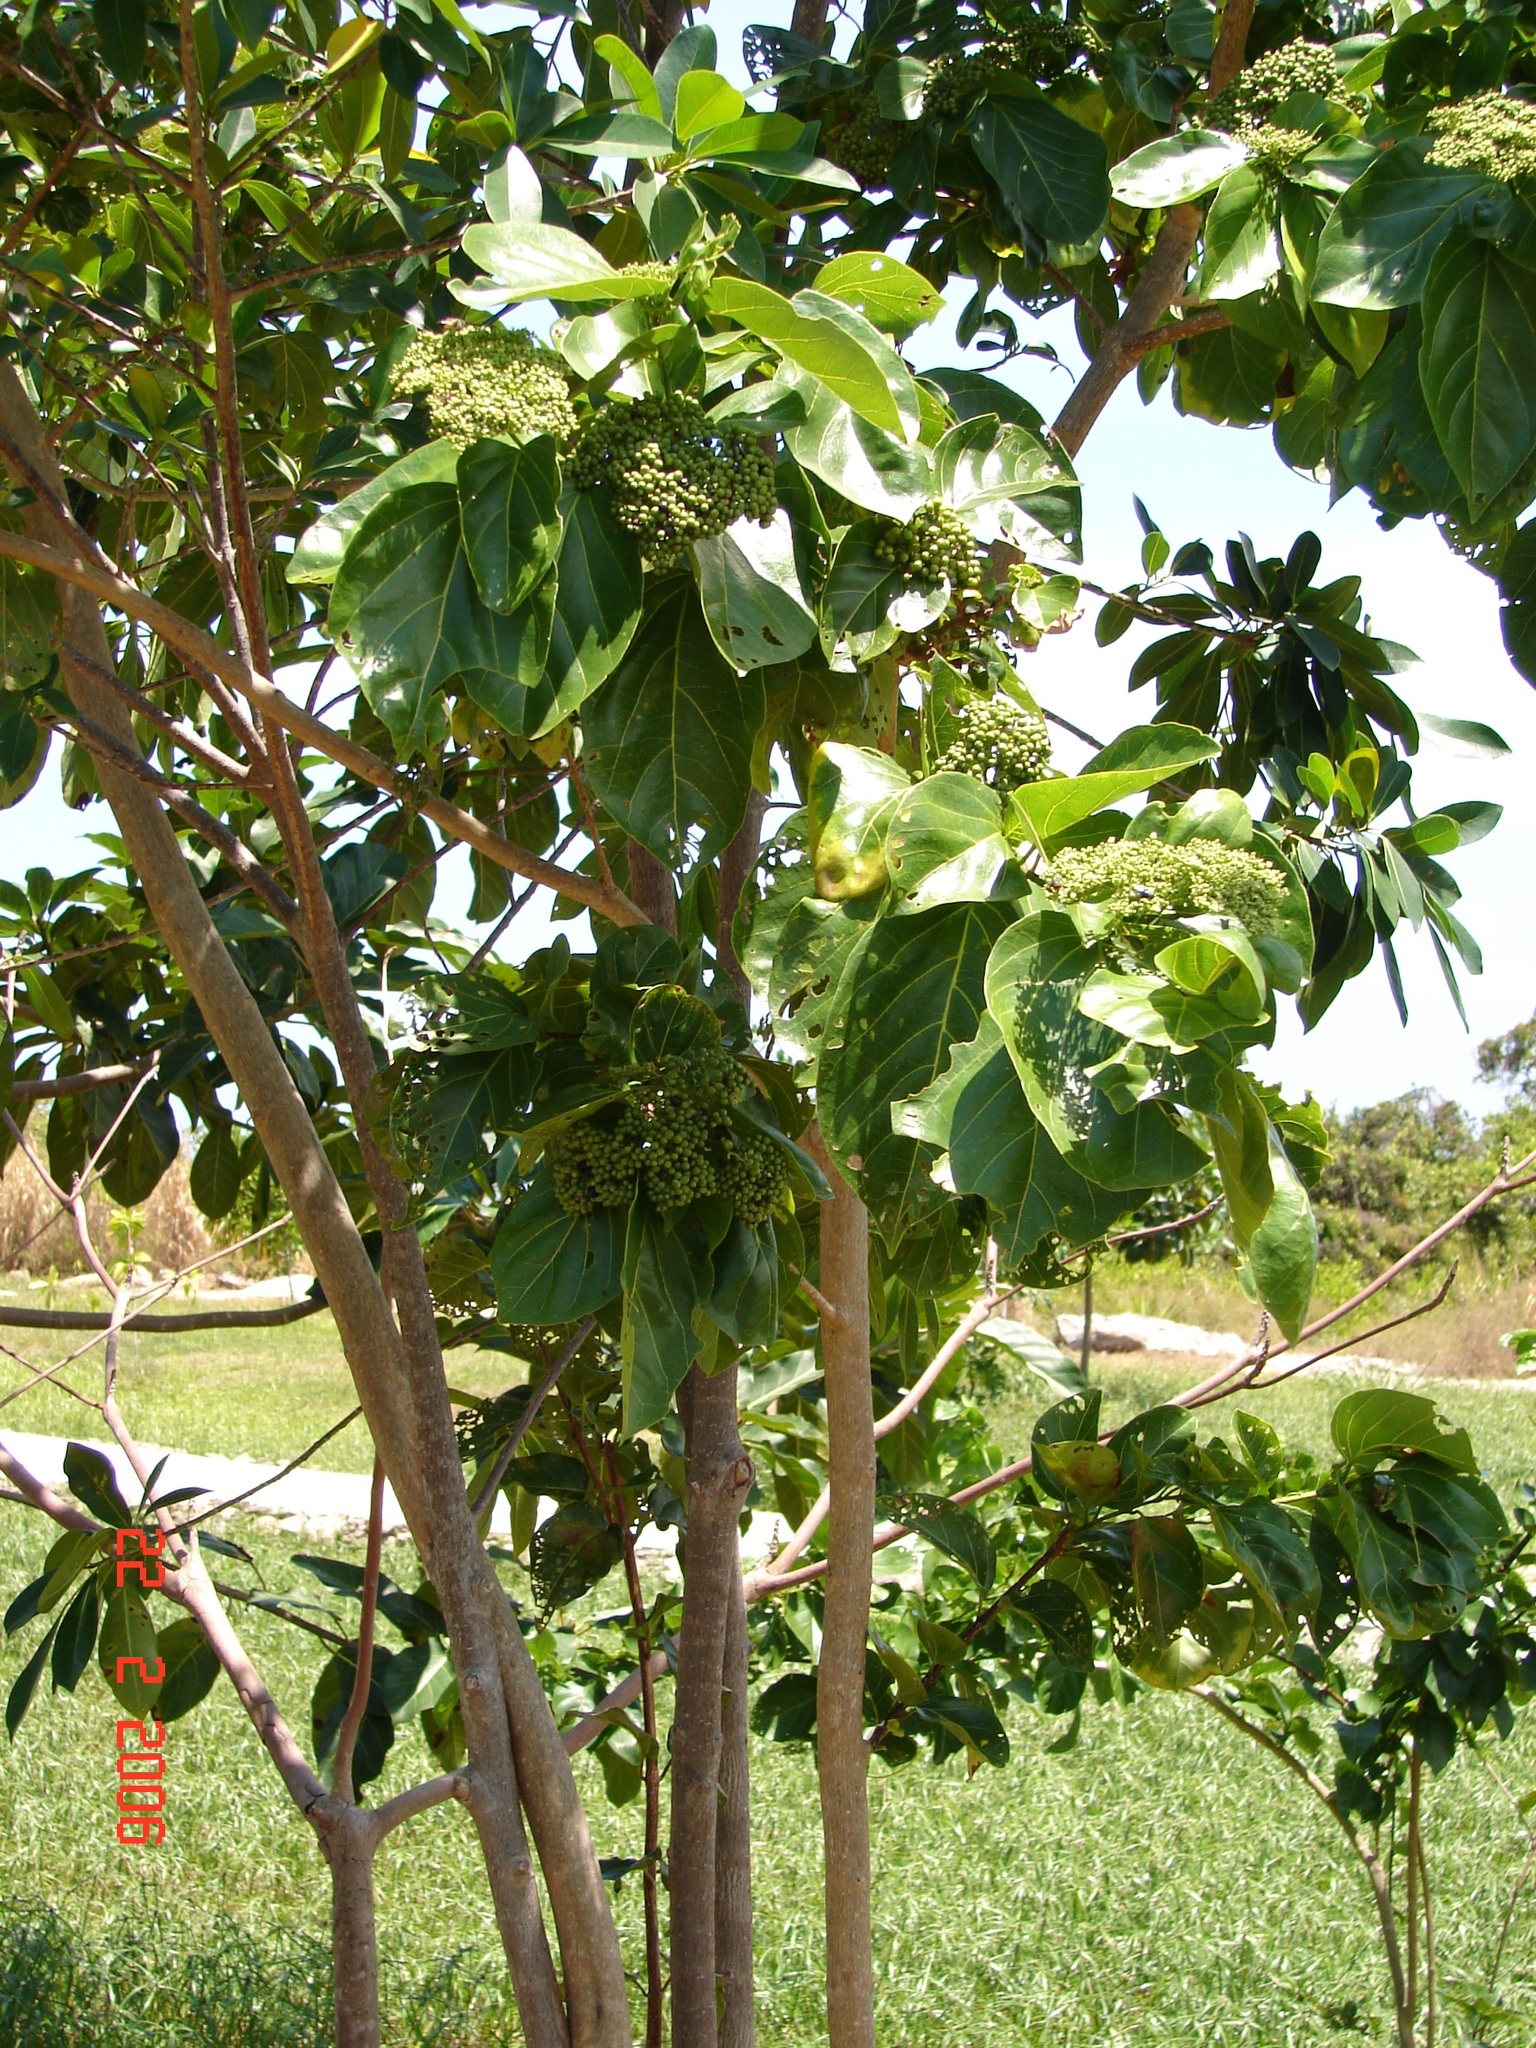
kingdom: Plantae
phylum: Tracheophyta
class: Magnoliopsida
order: Lamiales
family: Lamiaceae
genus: Premna
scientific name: Premna serratifolia
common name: Bastard guelder
